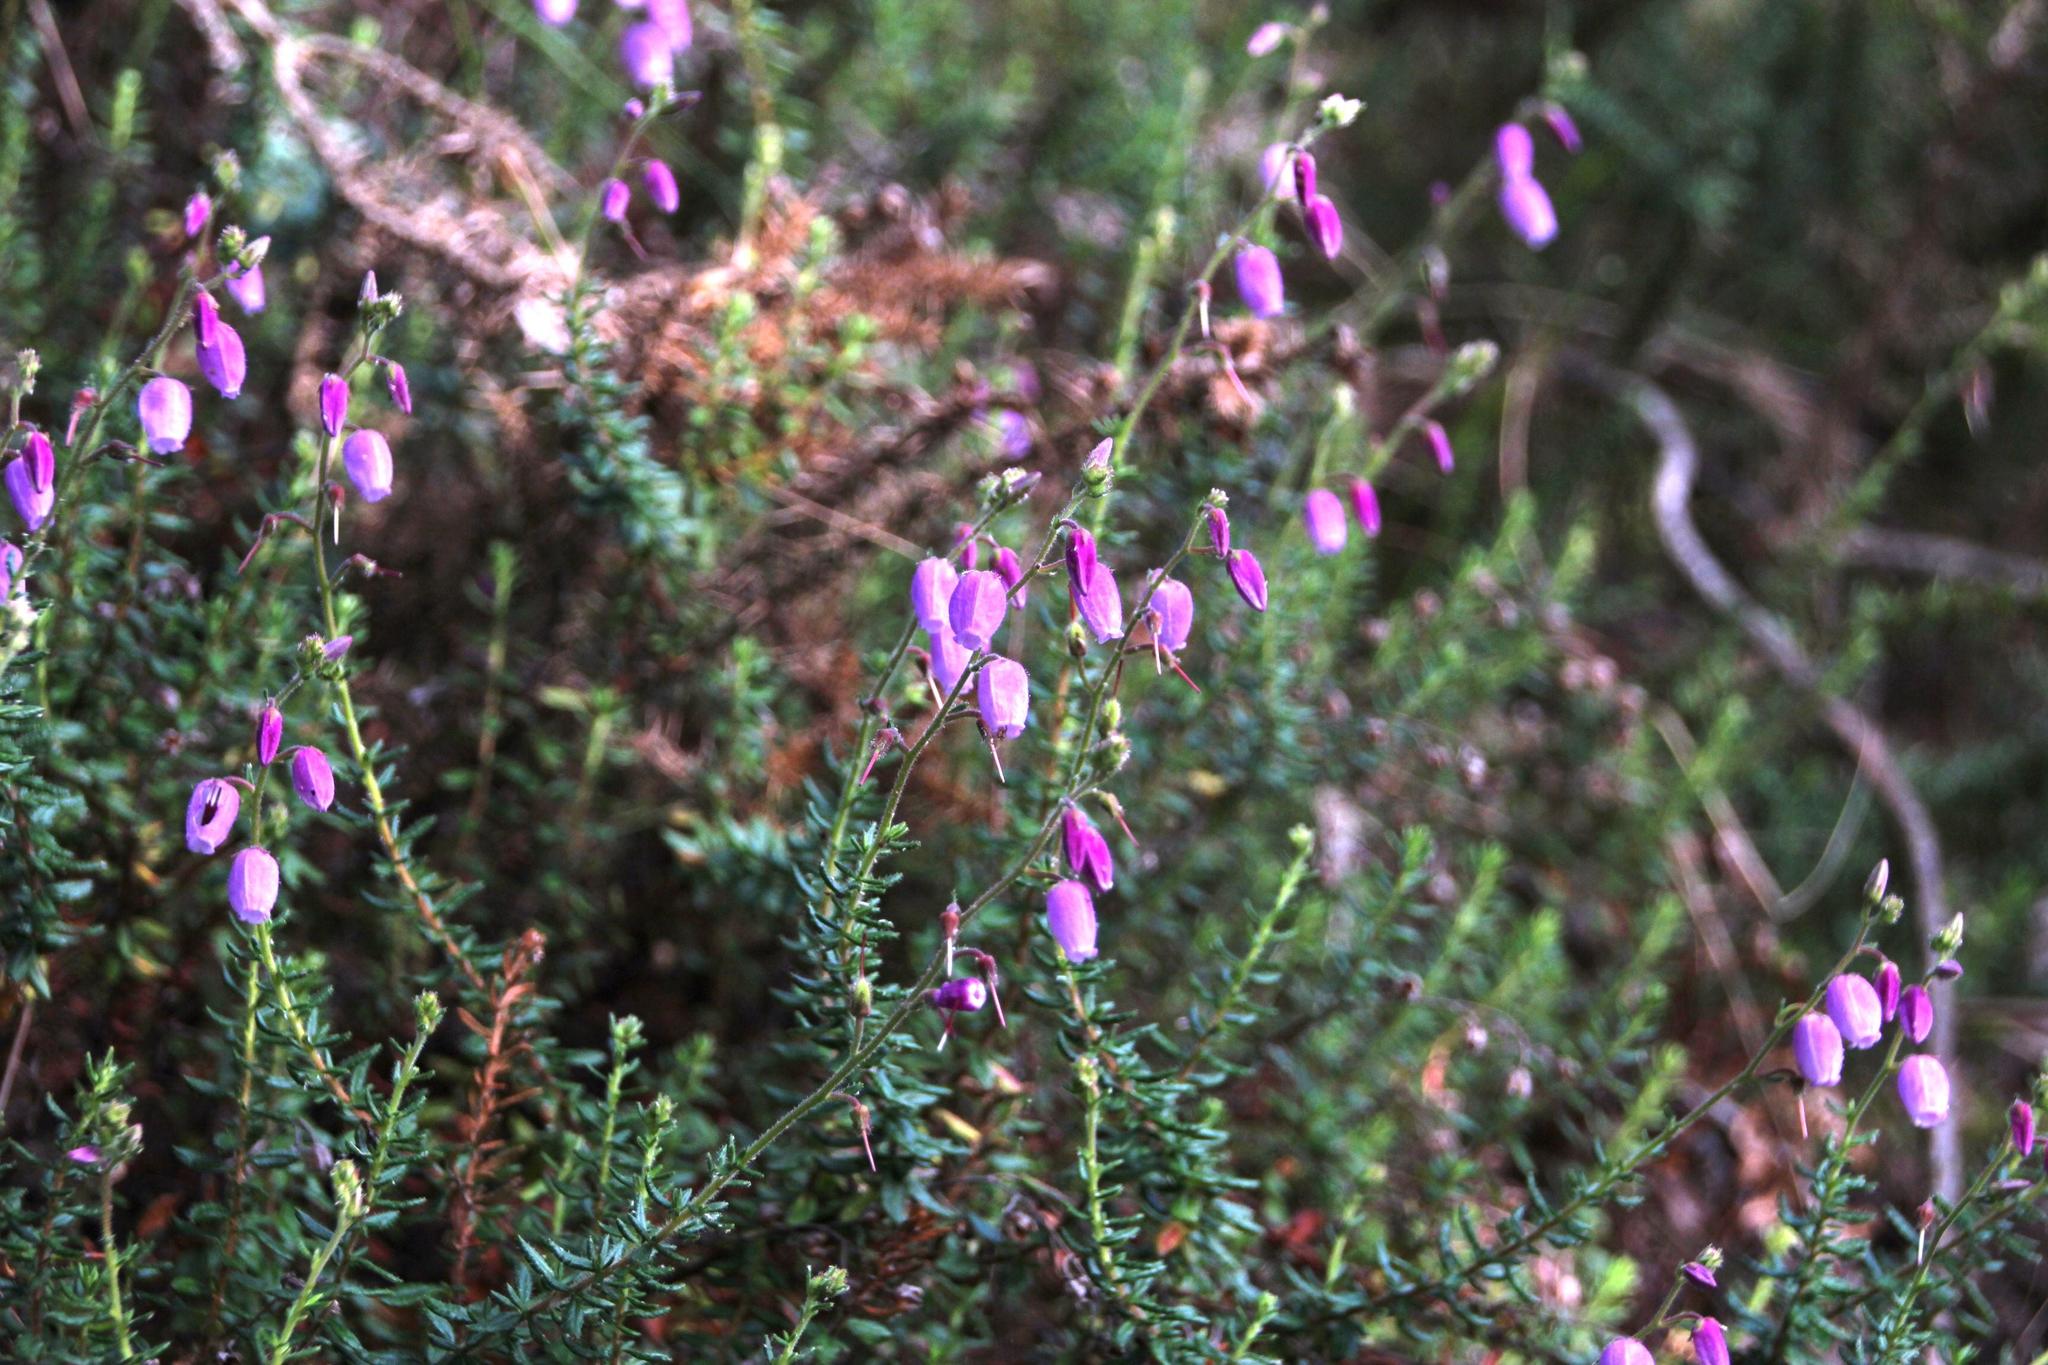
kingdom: Plantae
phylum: Tracheophyta
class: Magnoliopsida
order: Ericales
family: Ericaceae
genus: Daboecia
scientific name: Daboecia cantabrica
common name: St. dabeoc's-heath
